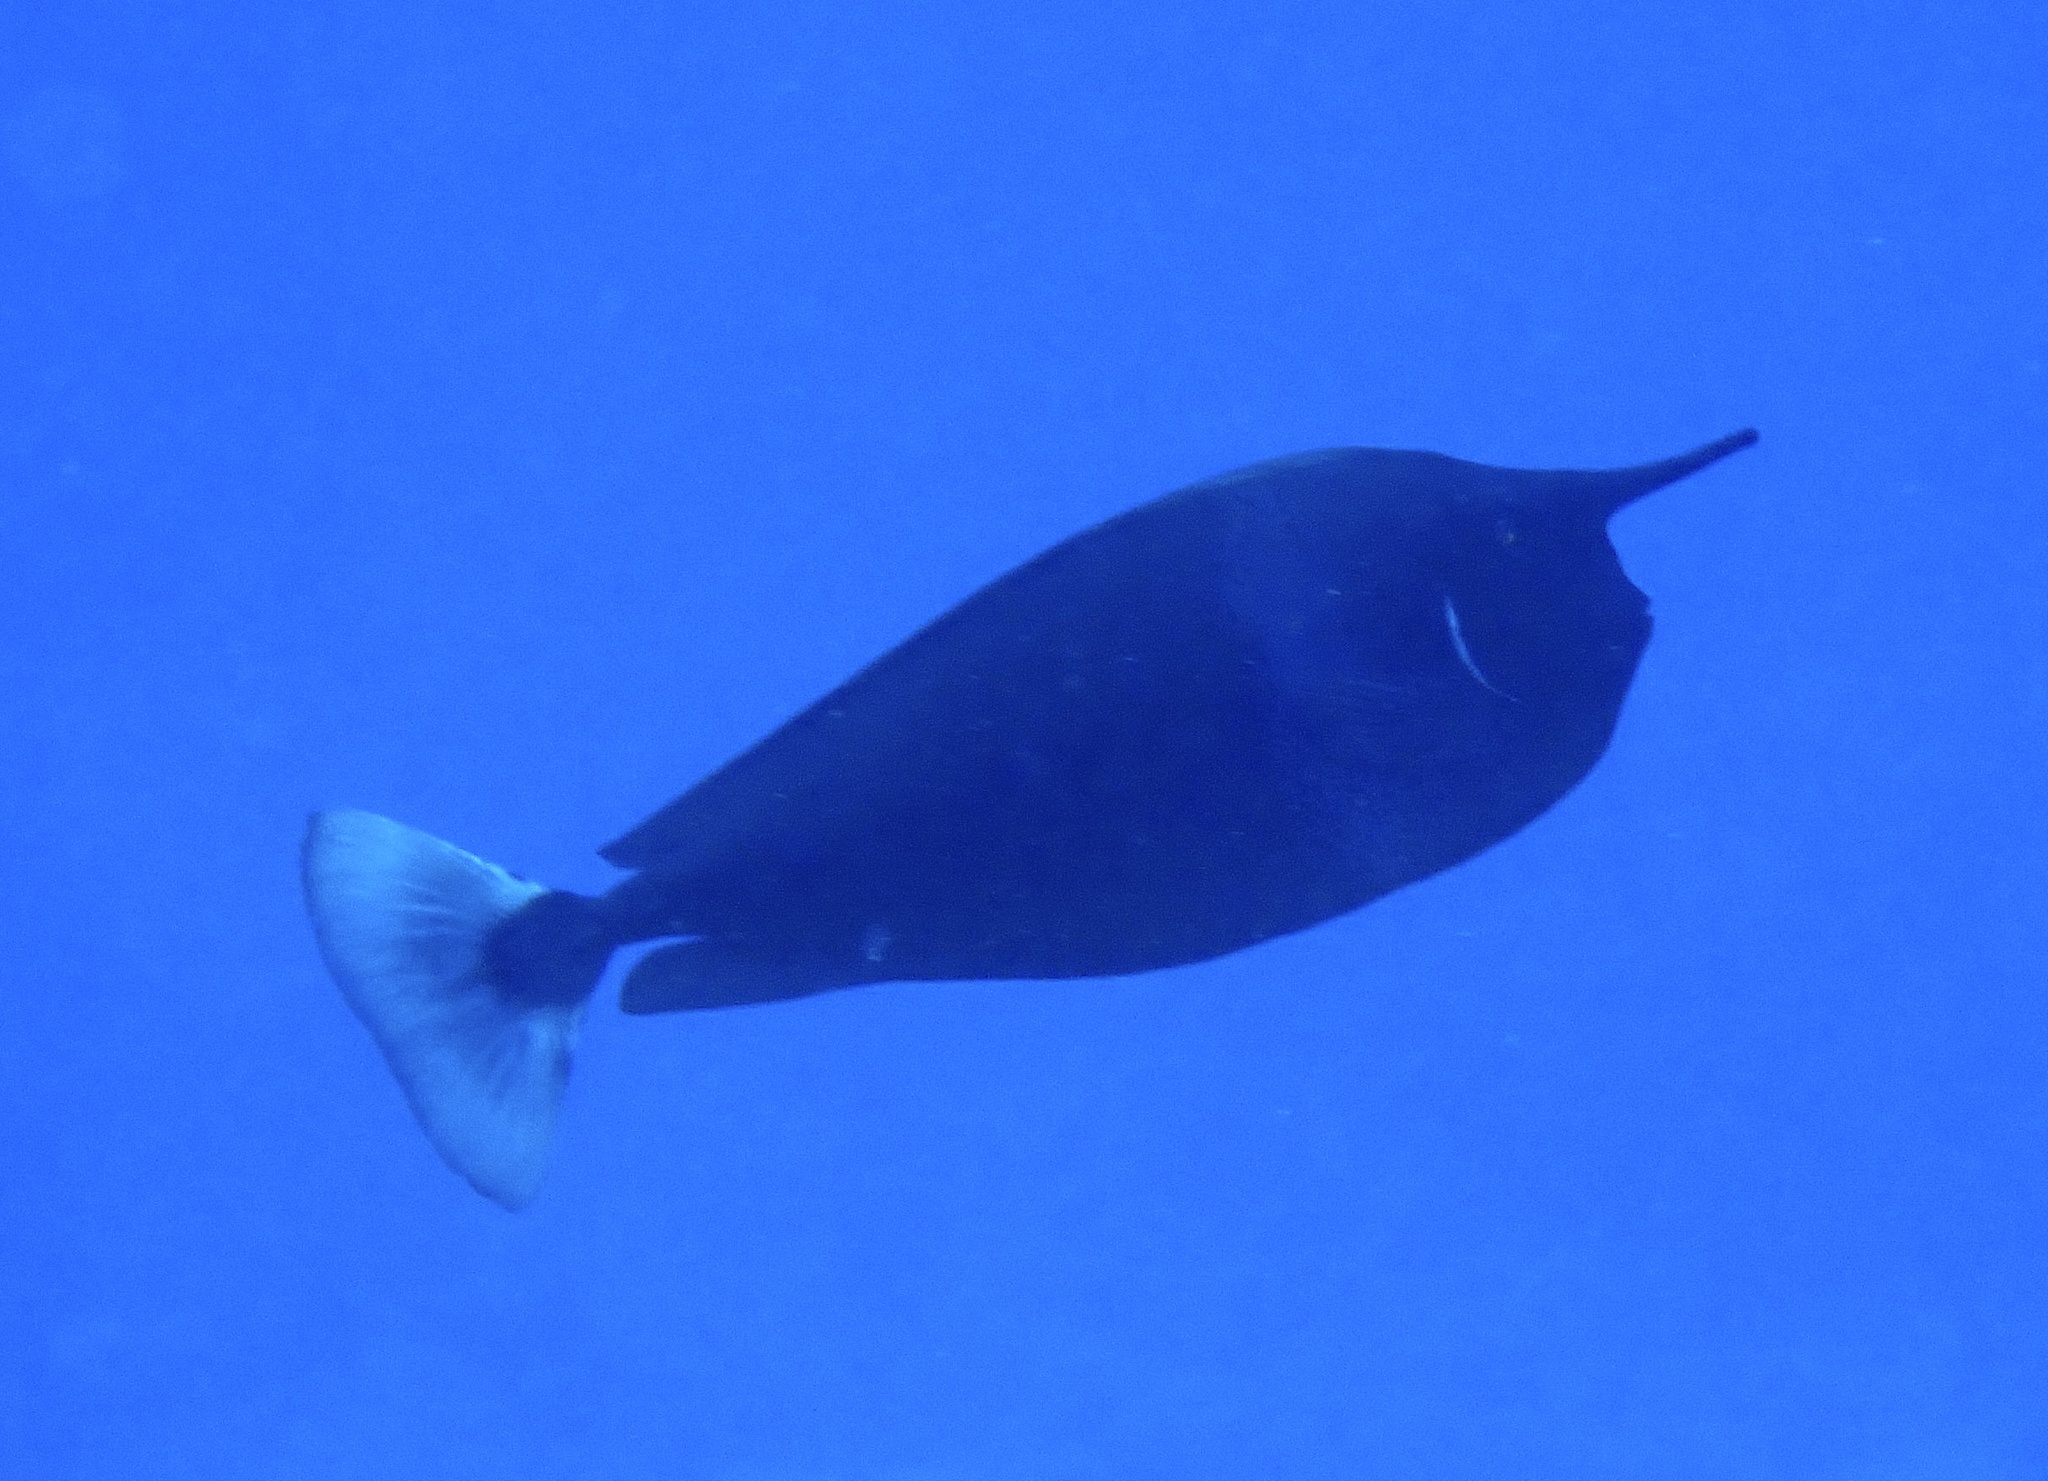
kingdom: Animalia
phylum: Chordata
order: Perciformes
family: Acanthuridae
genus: Naso
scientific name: Naso brevirostris
